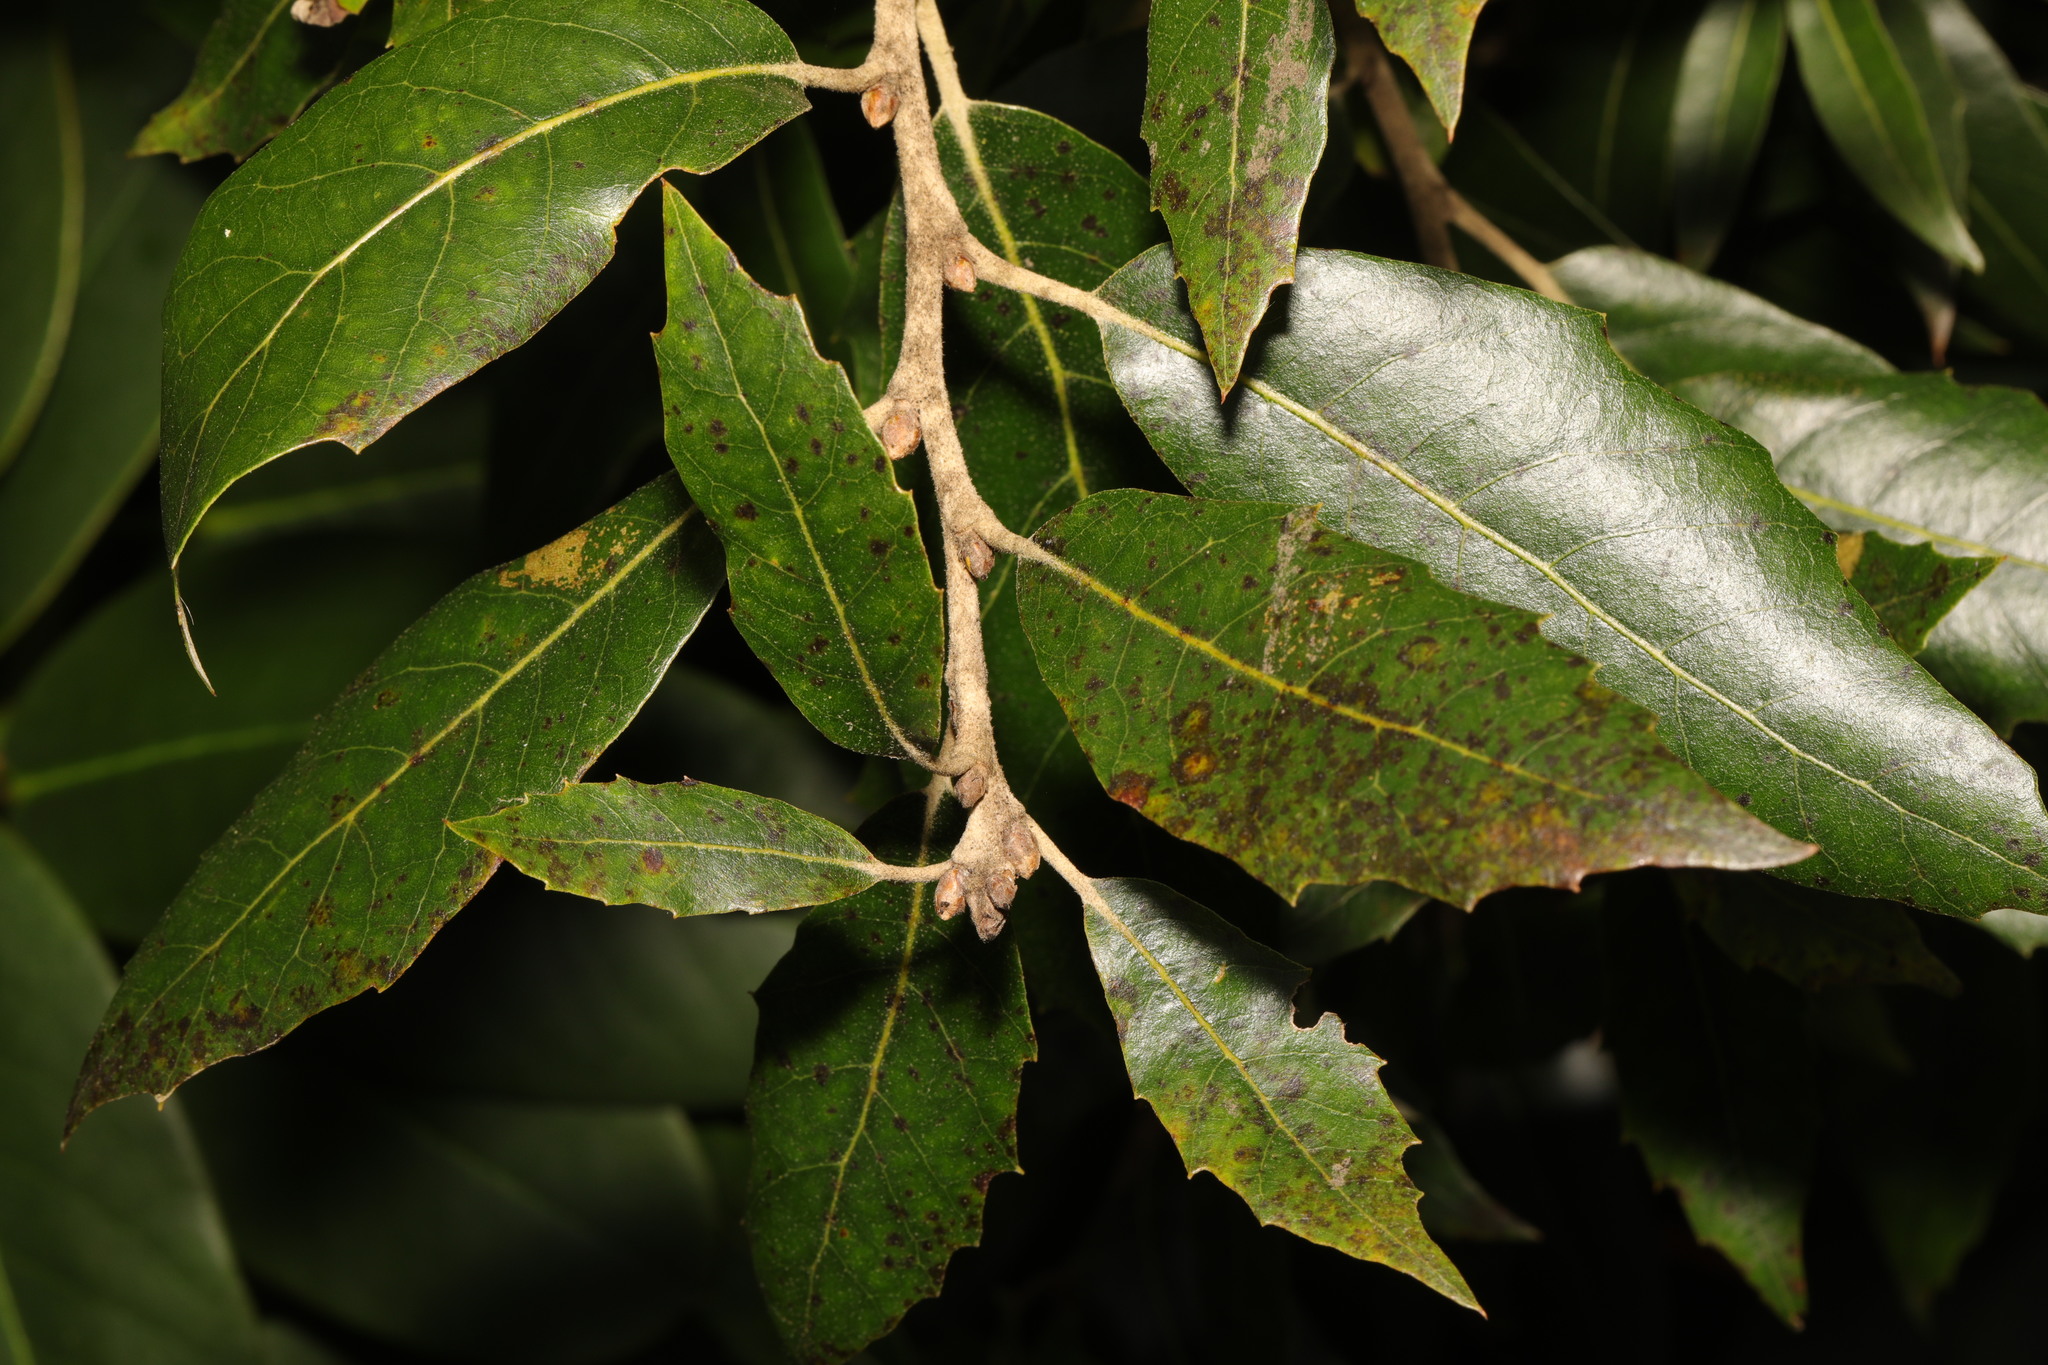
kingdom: Plantae
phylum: Tracheophyta
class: Magnoliopsida
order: Fagales
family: Fagaceae
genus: Quercus
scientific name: Quercus ilex
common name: Evergreen oak
